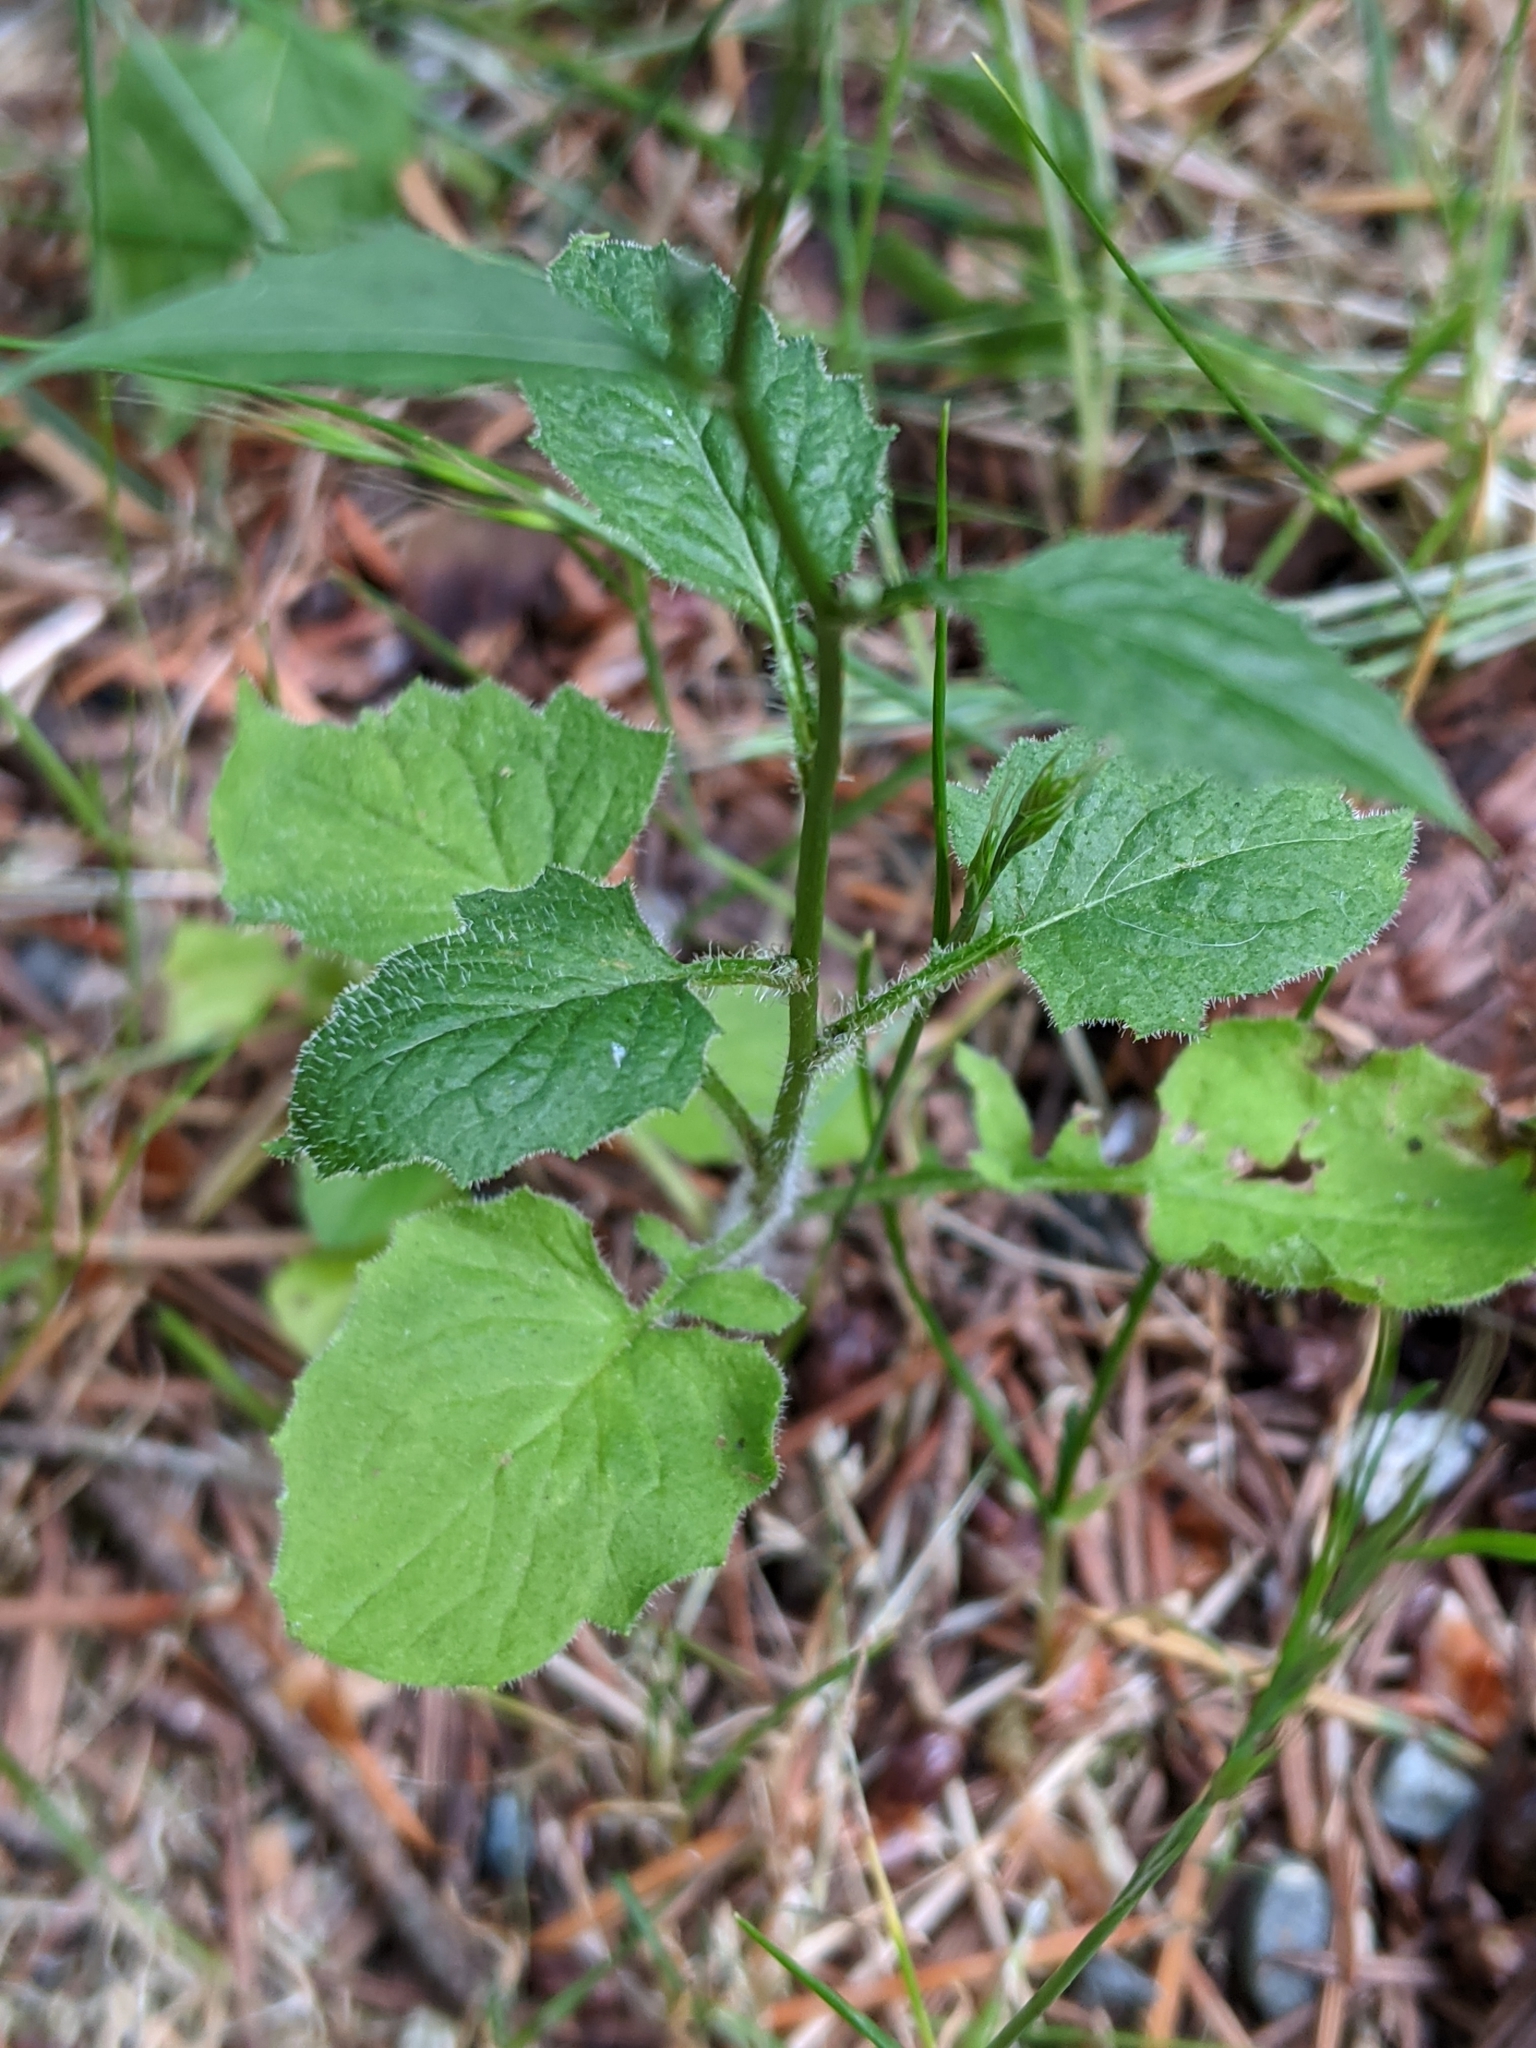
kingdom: Plantae
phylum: Tracheophyta
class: Magnoliopsida
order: Asterales
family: Asteraceae
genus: Lapsana
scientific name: Lapsana communis
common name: Nipplewort
